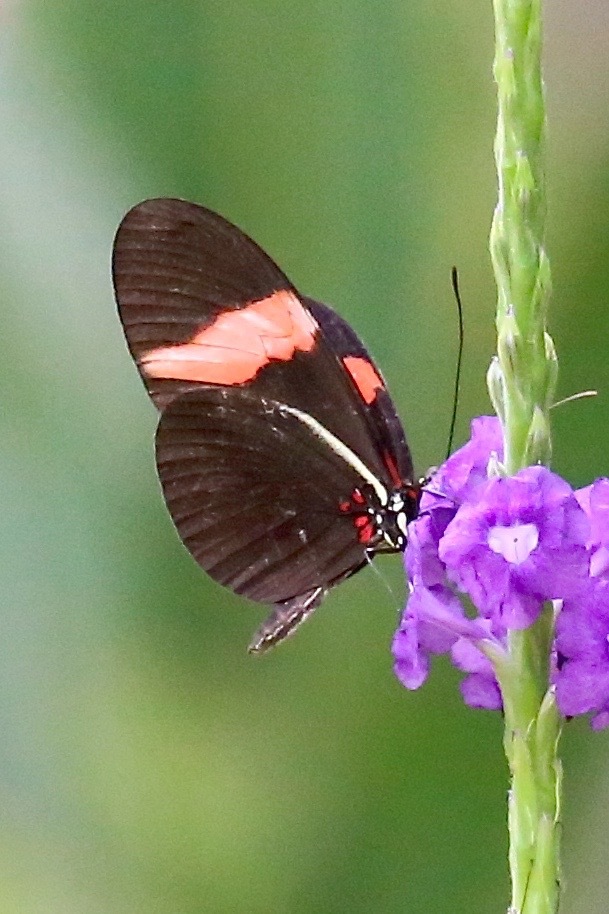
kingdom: Animalia
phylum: Arthropoda
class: Insecta
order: Lepidoptera
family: Nymphalidae
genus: Heliconius
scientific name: Heliconius erato
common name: Common patch longwing
